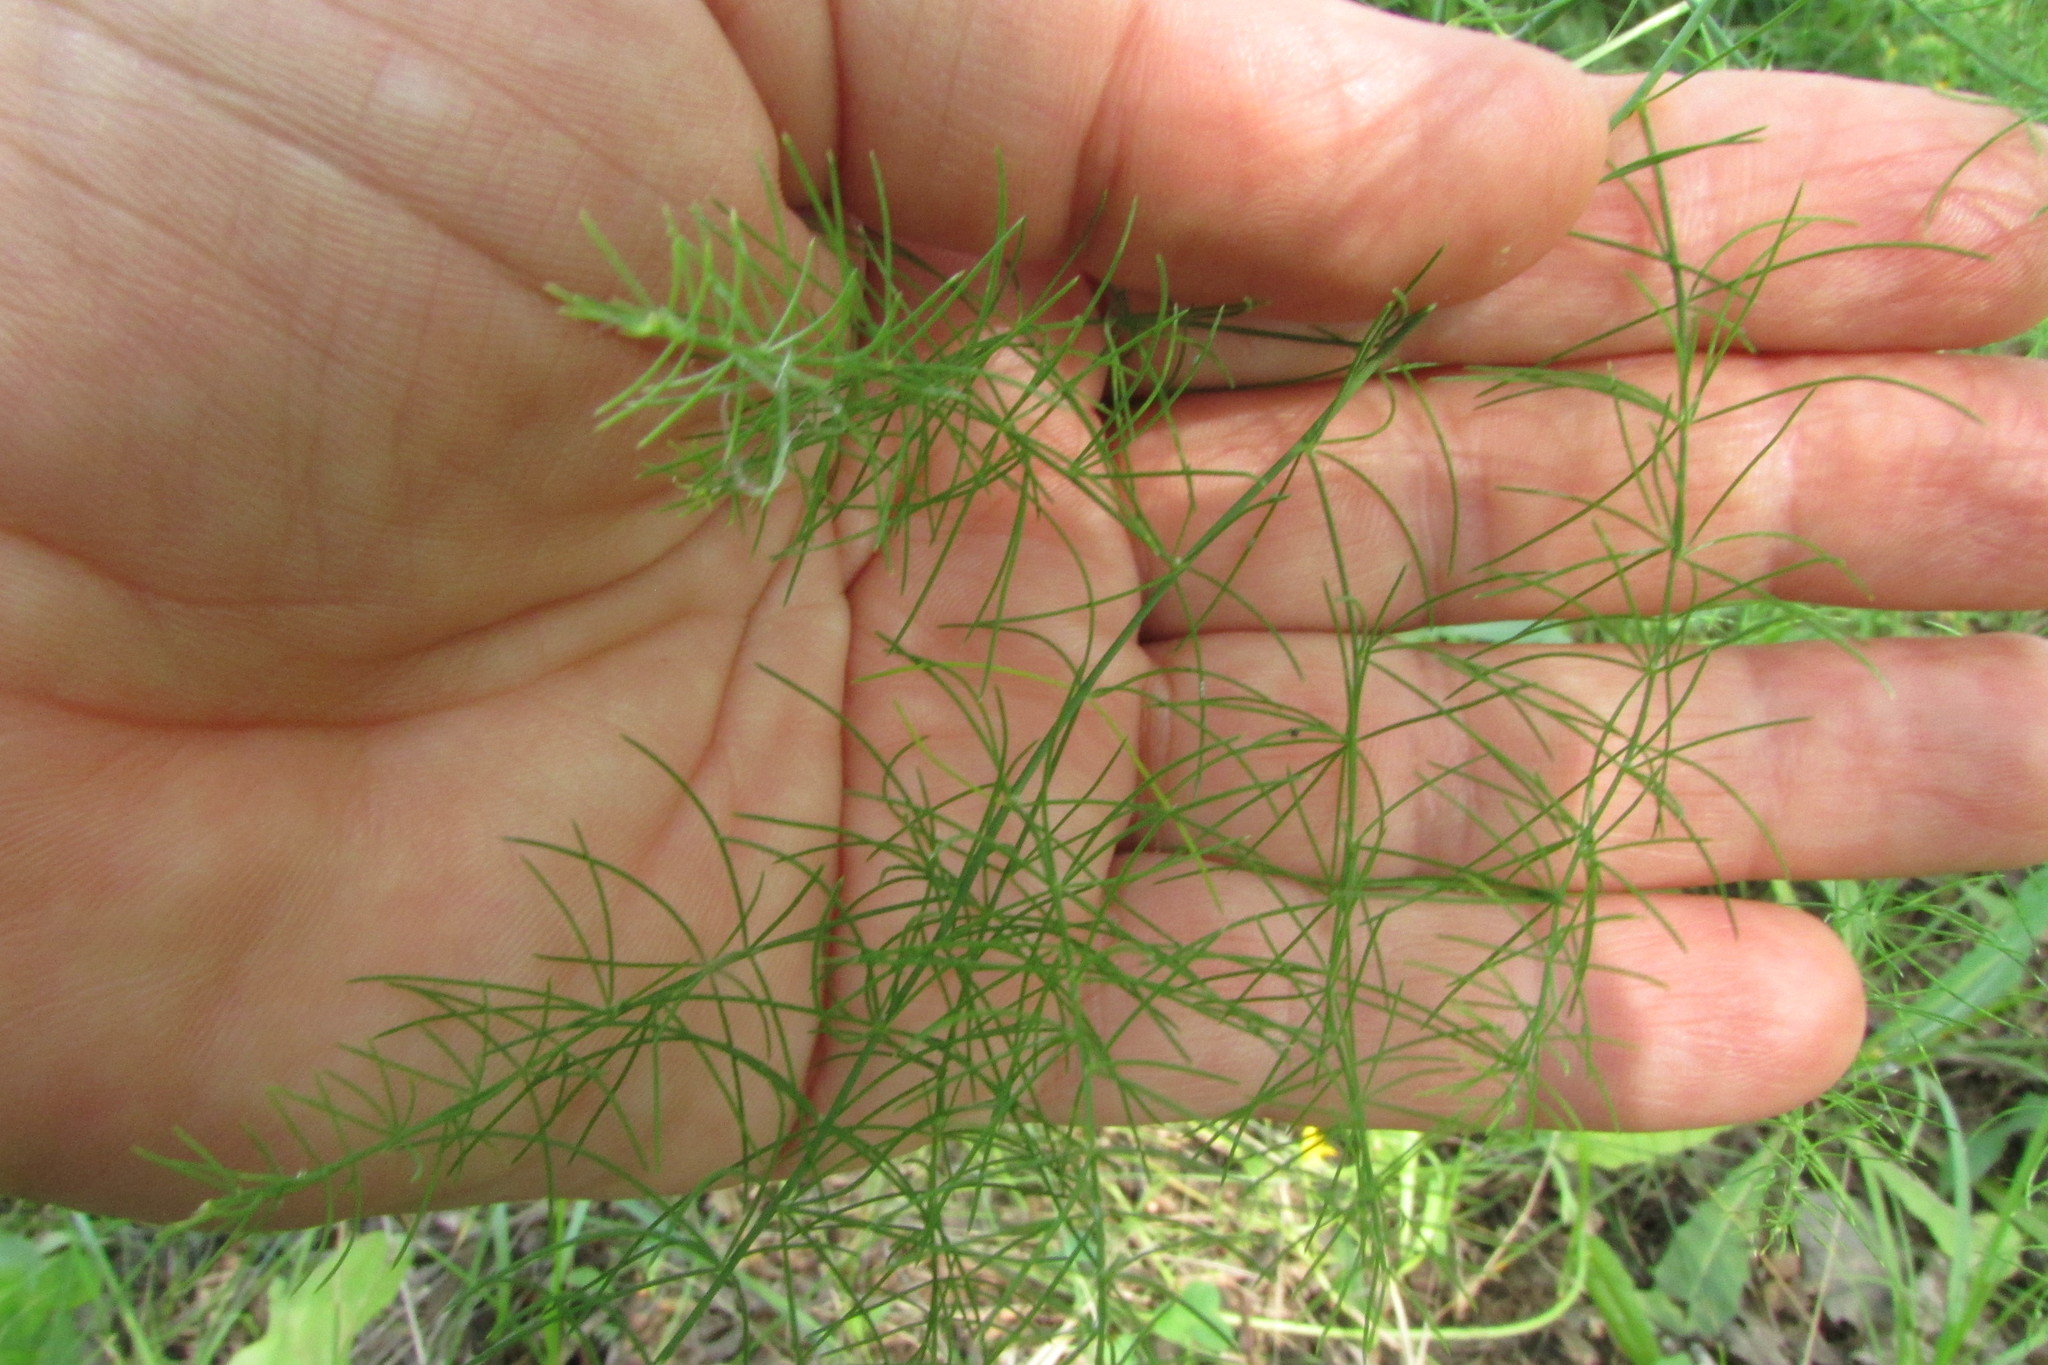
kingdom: Plantae
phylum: Tracheophyta
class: Liliopsida
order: Asparagales
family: Asparagaceae
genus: Asparagus
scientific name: Asparagus officinalis
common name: Garden asparagus
